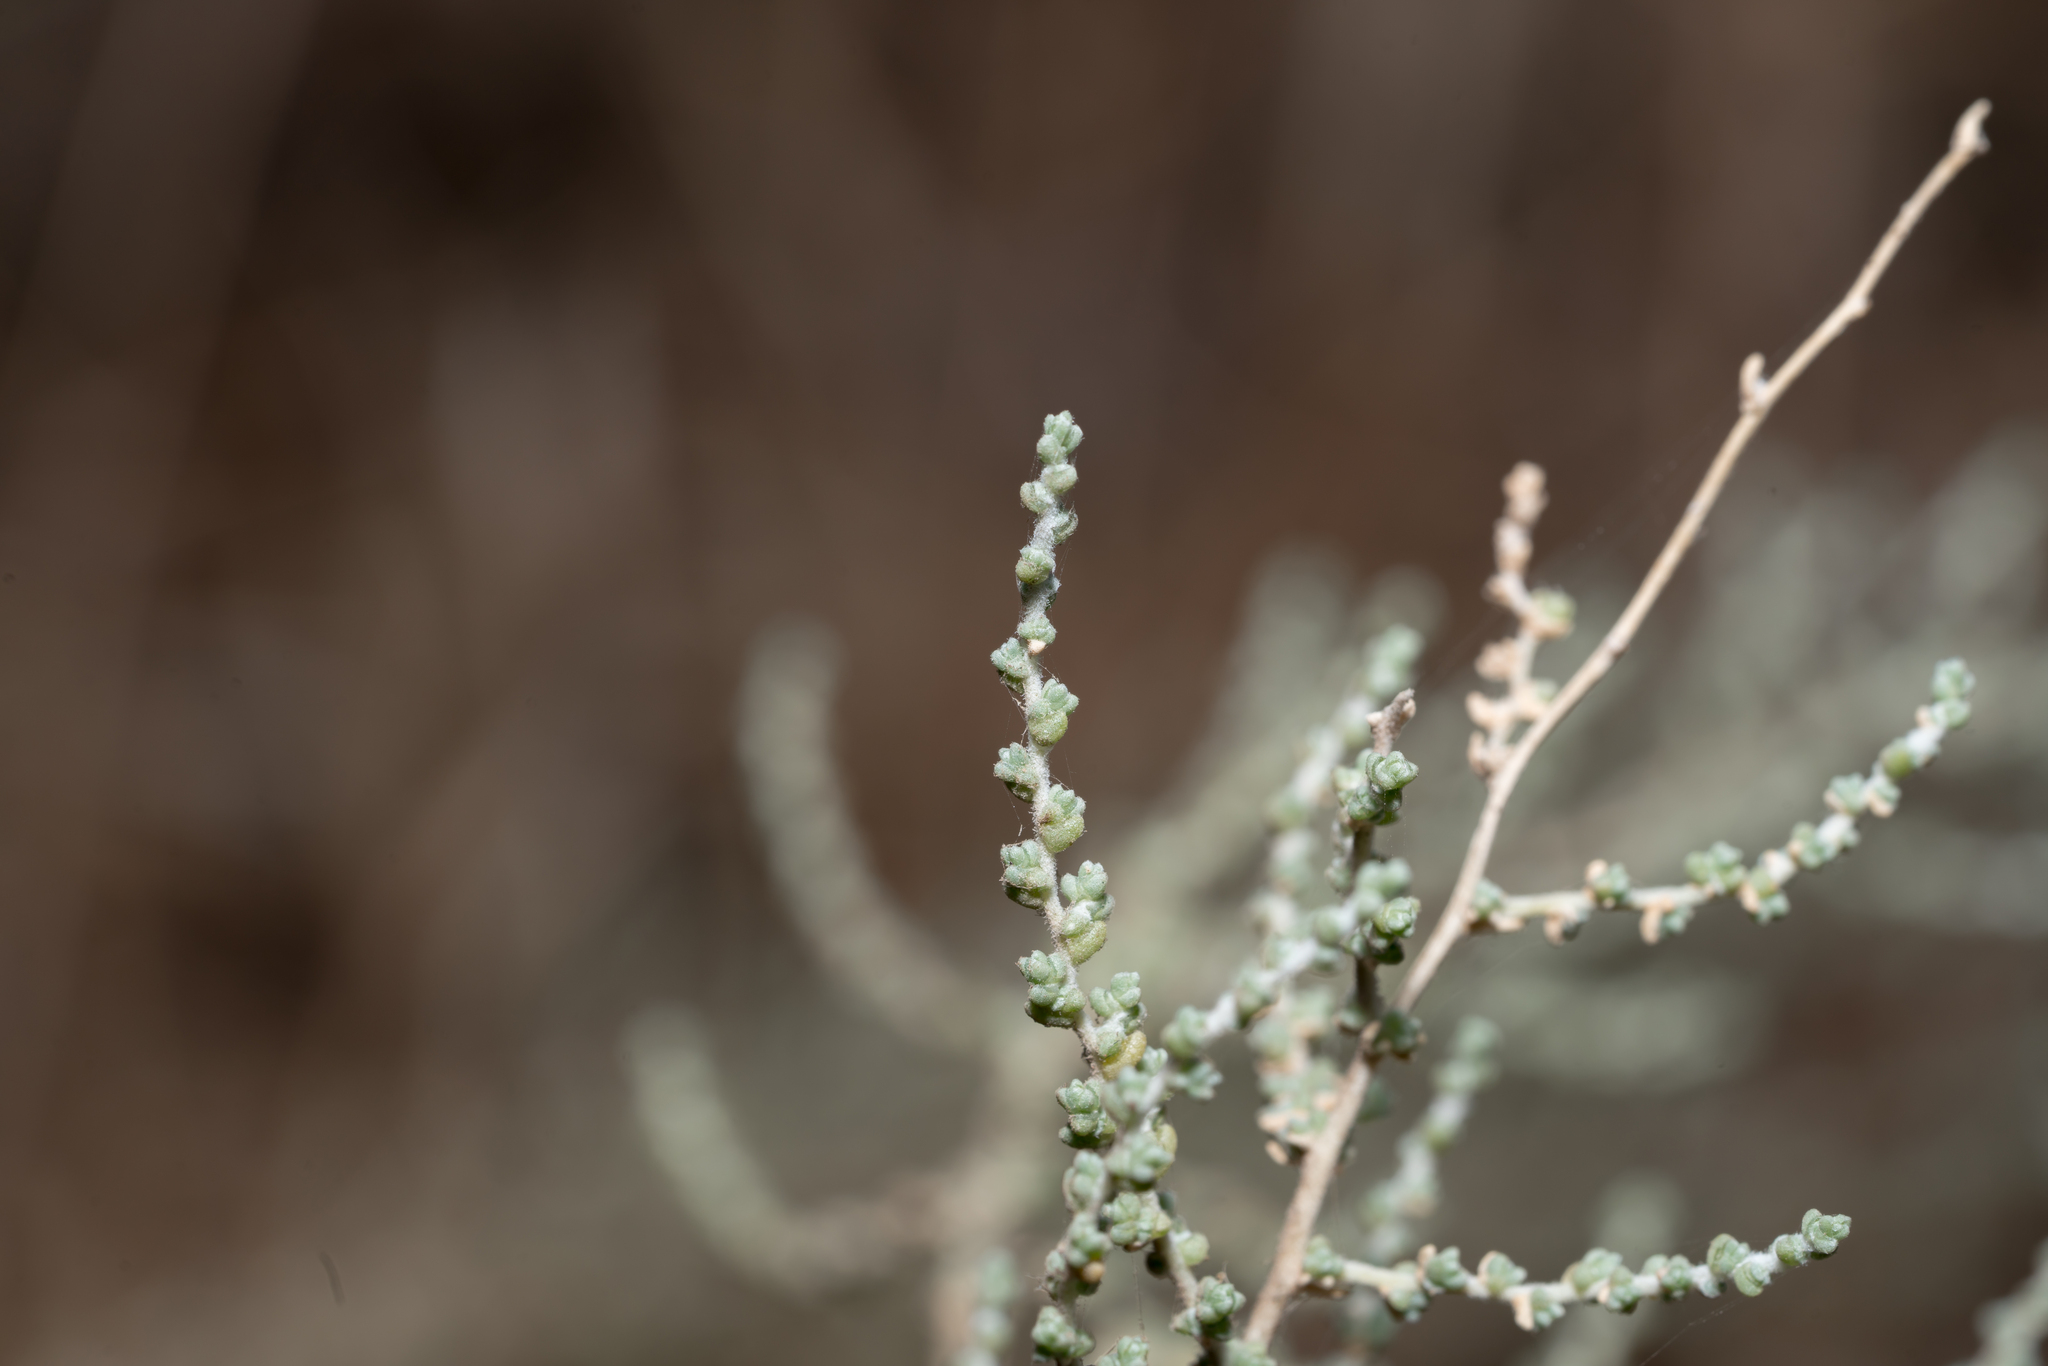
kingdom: Plantae
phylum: Tracheophyta
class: Magnoliopsida
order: Caryophyllales
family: Amaranthaceae
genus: Nitrosalsola
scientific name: Nitrosalsola aegaea
